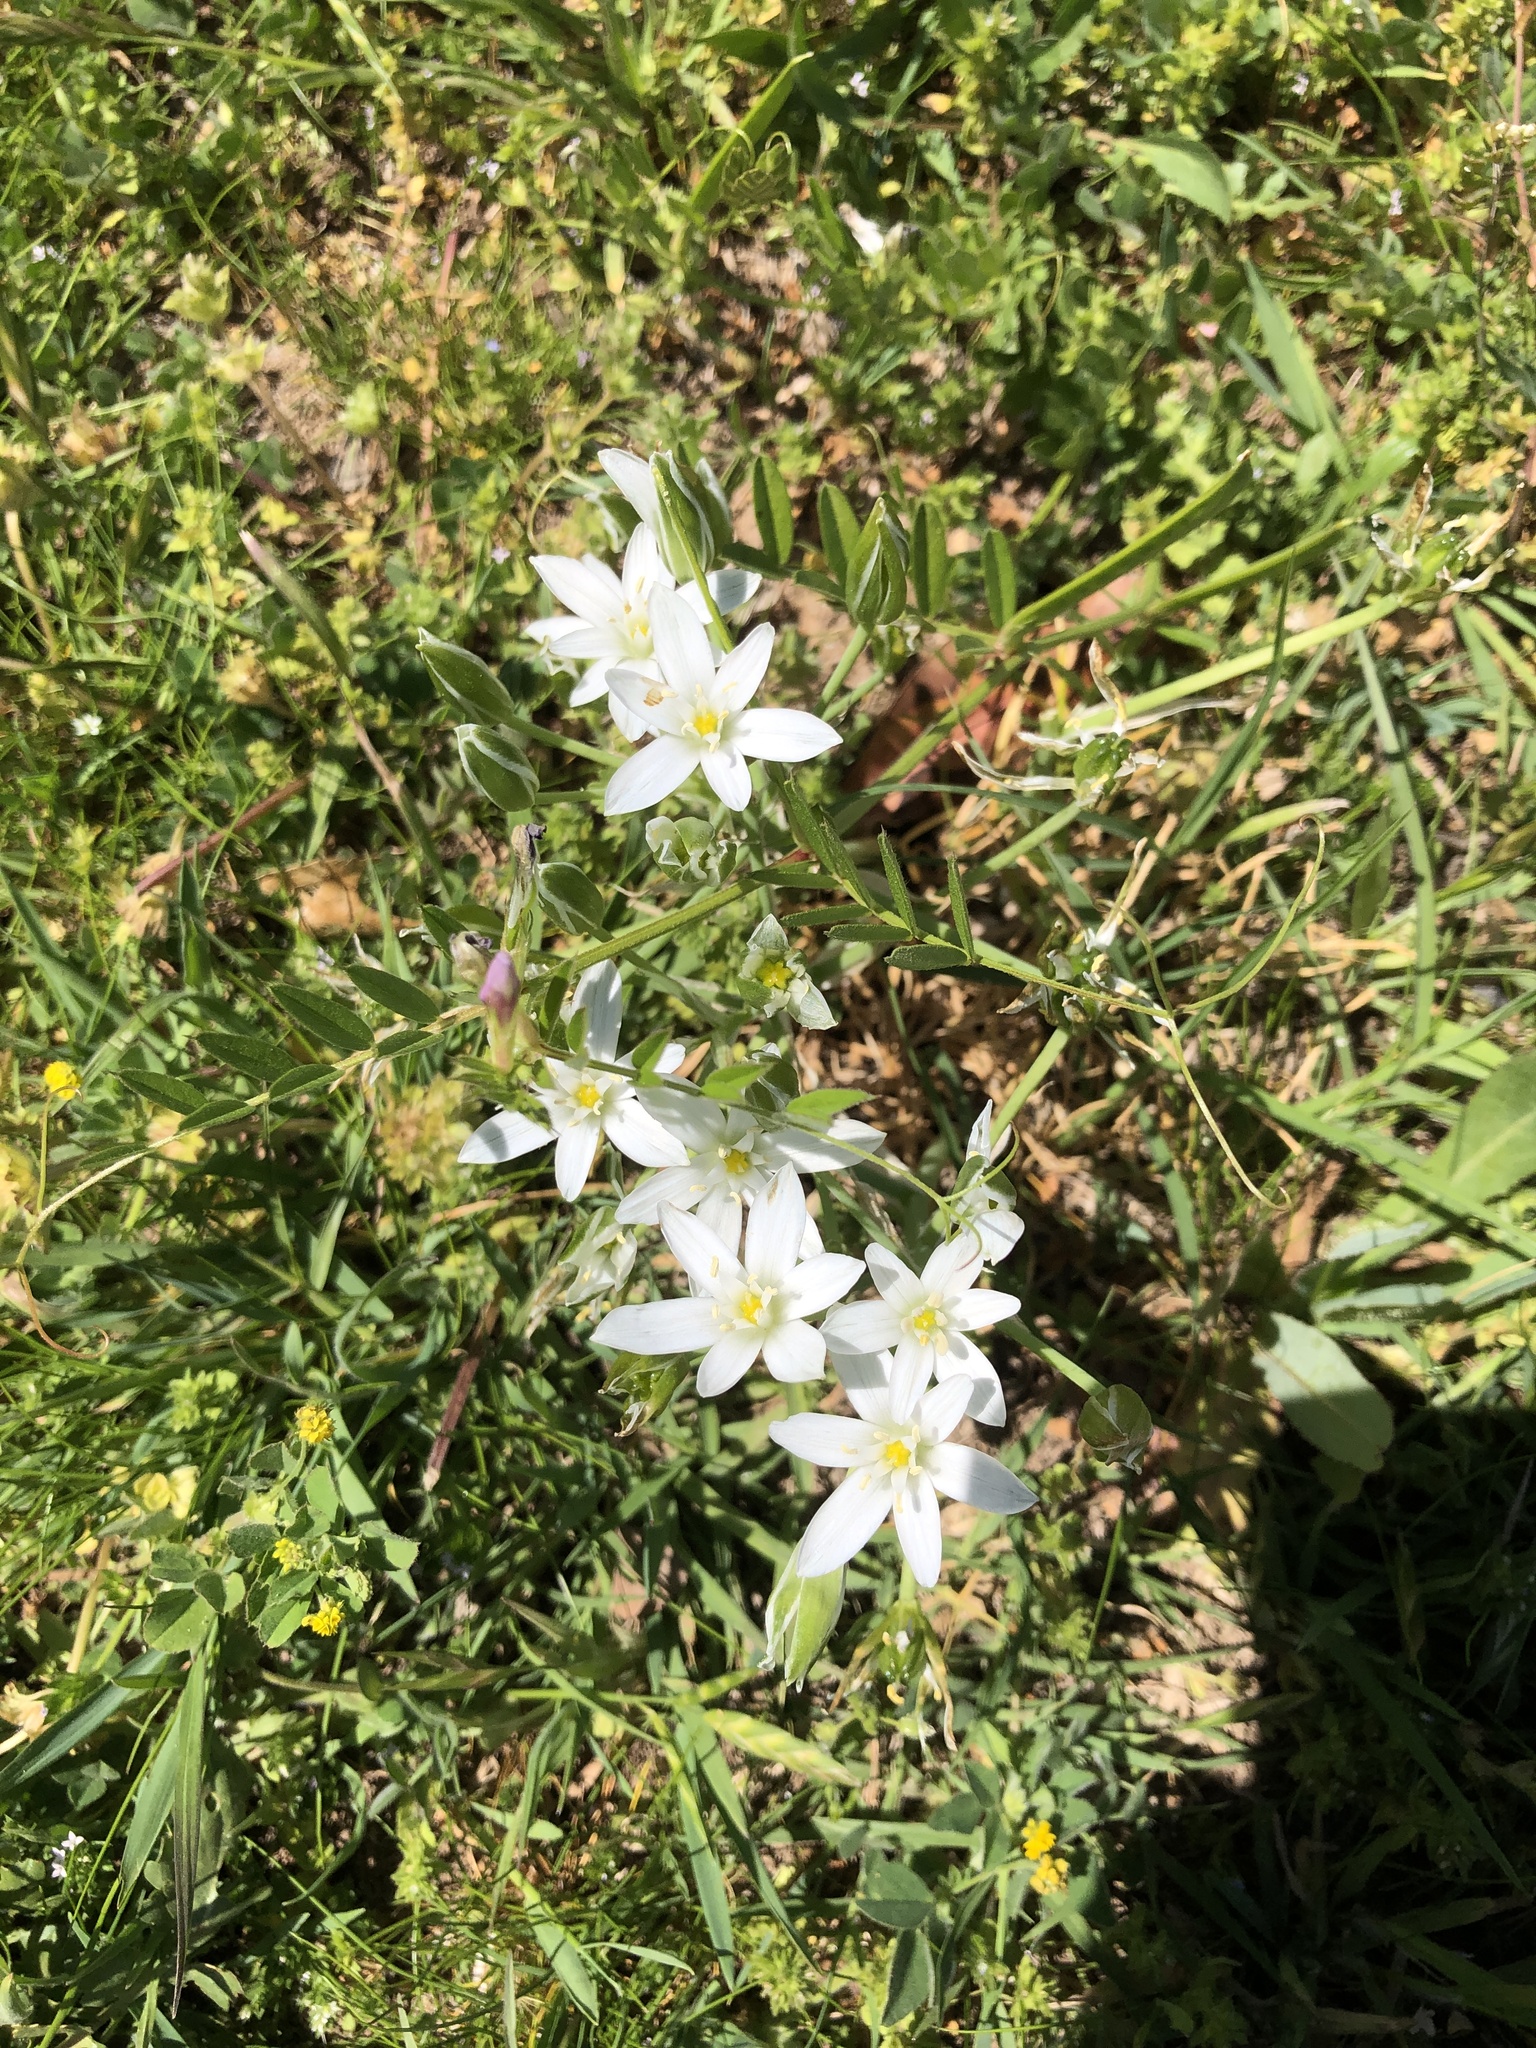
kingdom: Plantae
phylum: Tracheophyta
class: Liliopsida
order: Asparagales
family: Asparagaceae
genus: Ornithogalum
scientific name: Ornithogalum umbellatum
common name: Garden star-of-bethlehem
